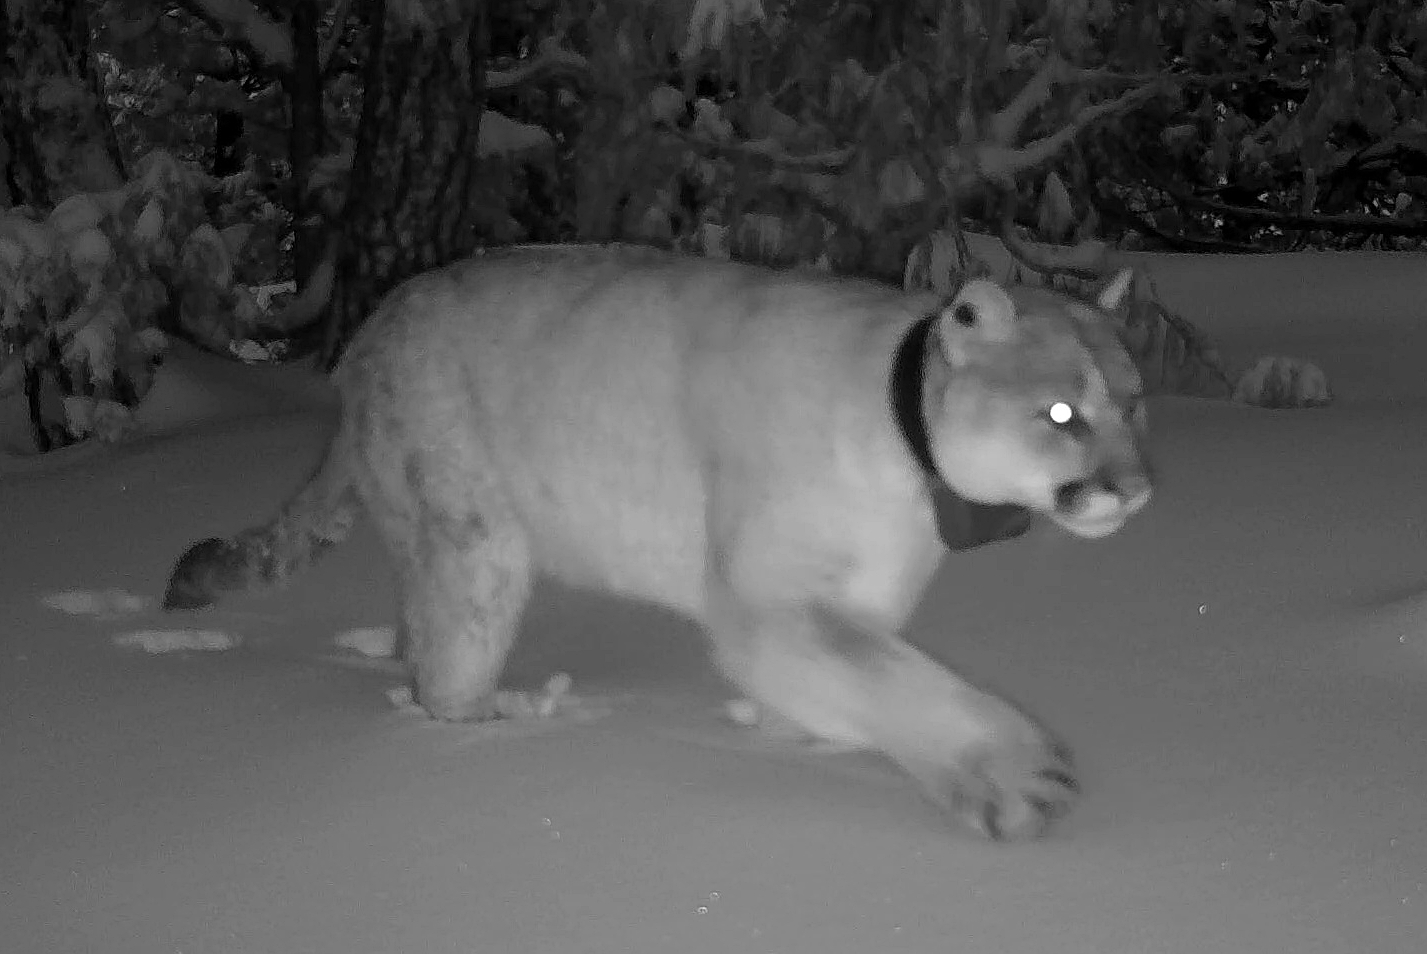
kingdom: Animalia
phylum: Chordata
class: Mammalia
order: Carnivora
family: Felidae
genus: Puma
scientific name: Puma concolor
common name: Puma
